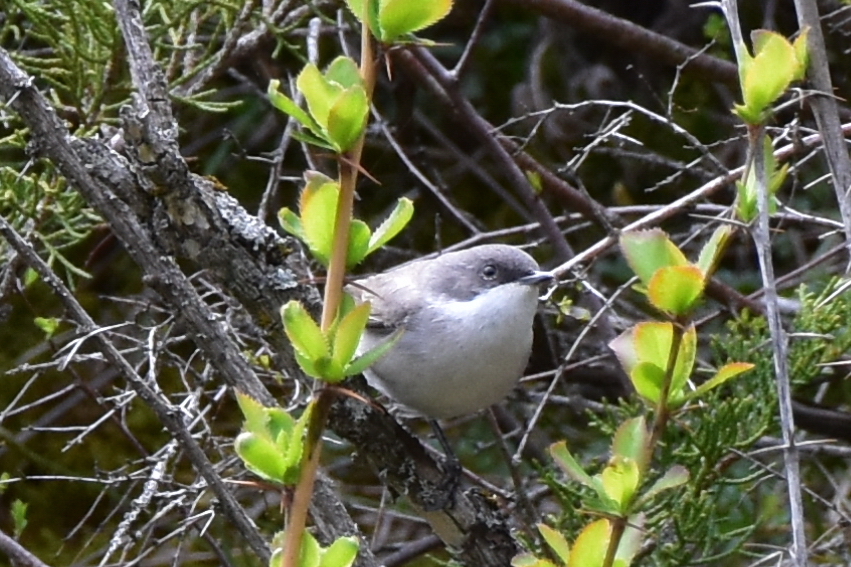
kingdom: Animalia
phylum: Chordata
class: Aves
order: Passeriformes
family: Sylviidae
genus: Sylvia
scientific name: Sylvia curruca
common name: Lesser whitethroat
